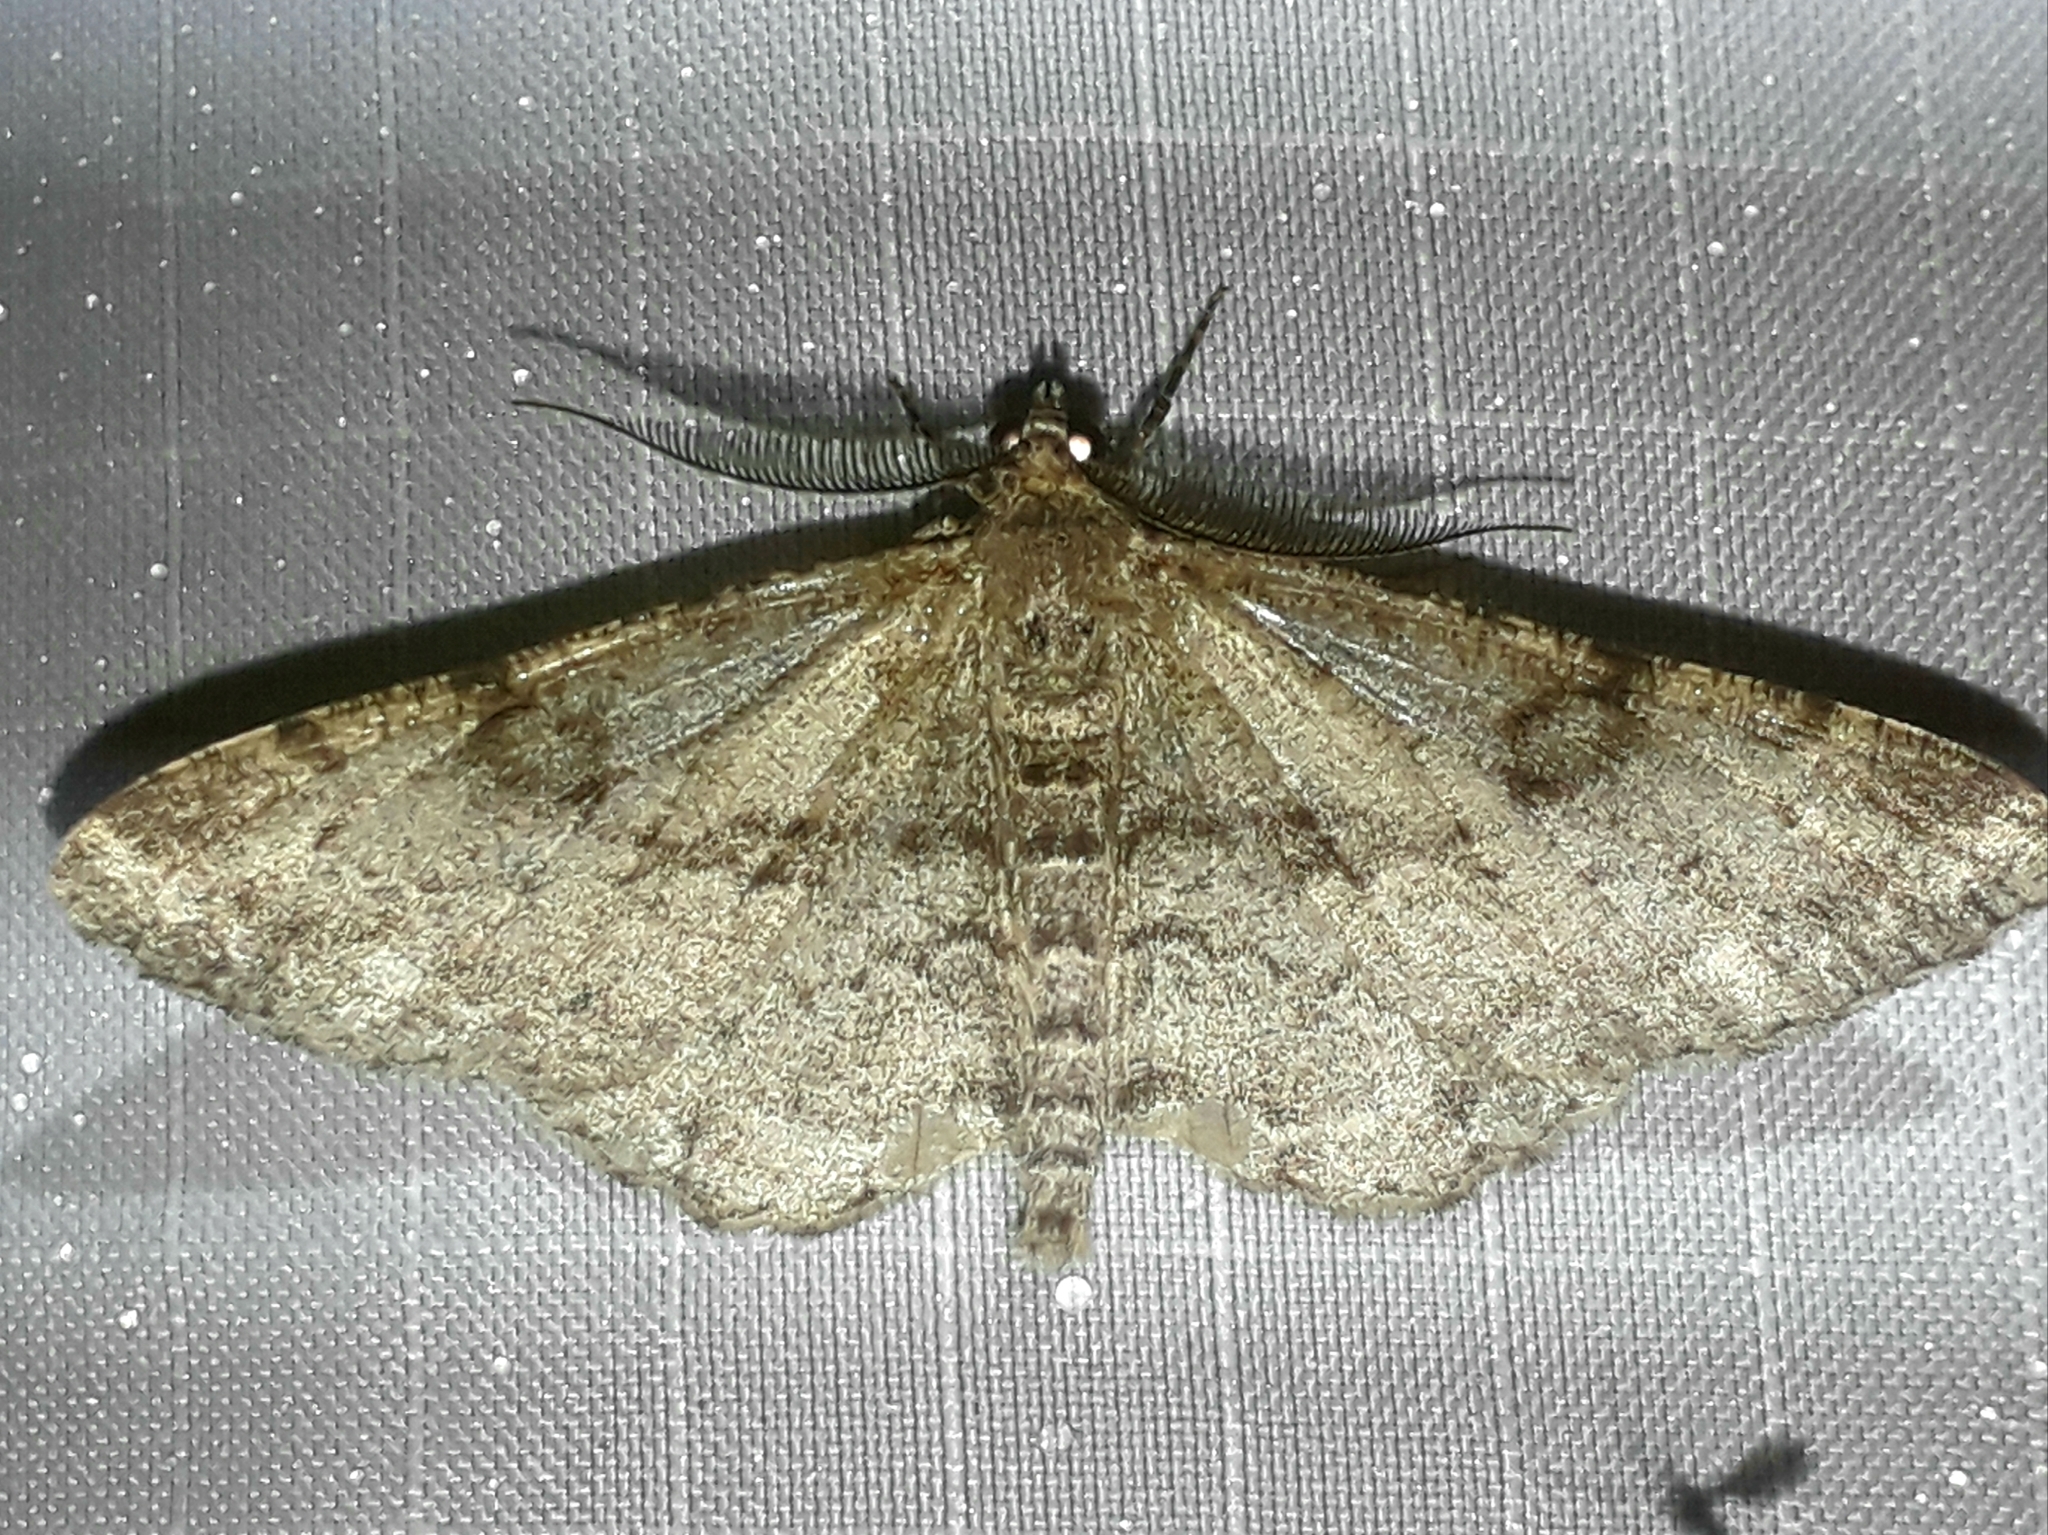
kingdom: Animalia
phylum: Arthropoda
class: Insecta
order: Lepidoptera
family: Geometridae
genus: Peribatodes
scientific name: Peribatodes rhomboidaria
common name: Willow beauty
